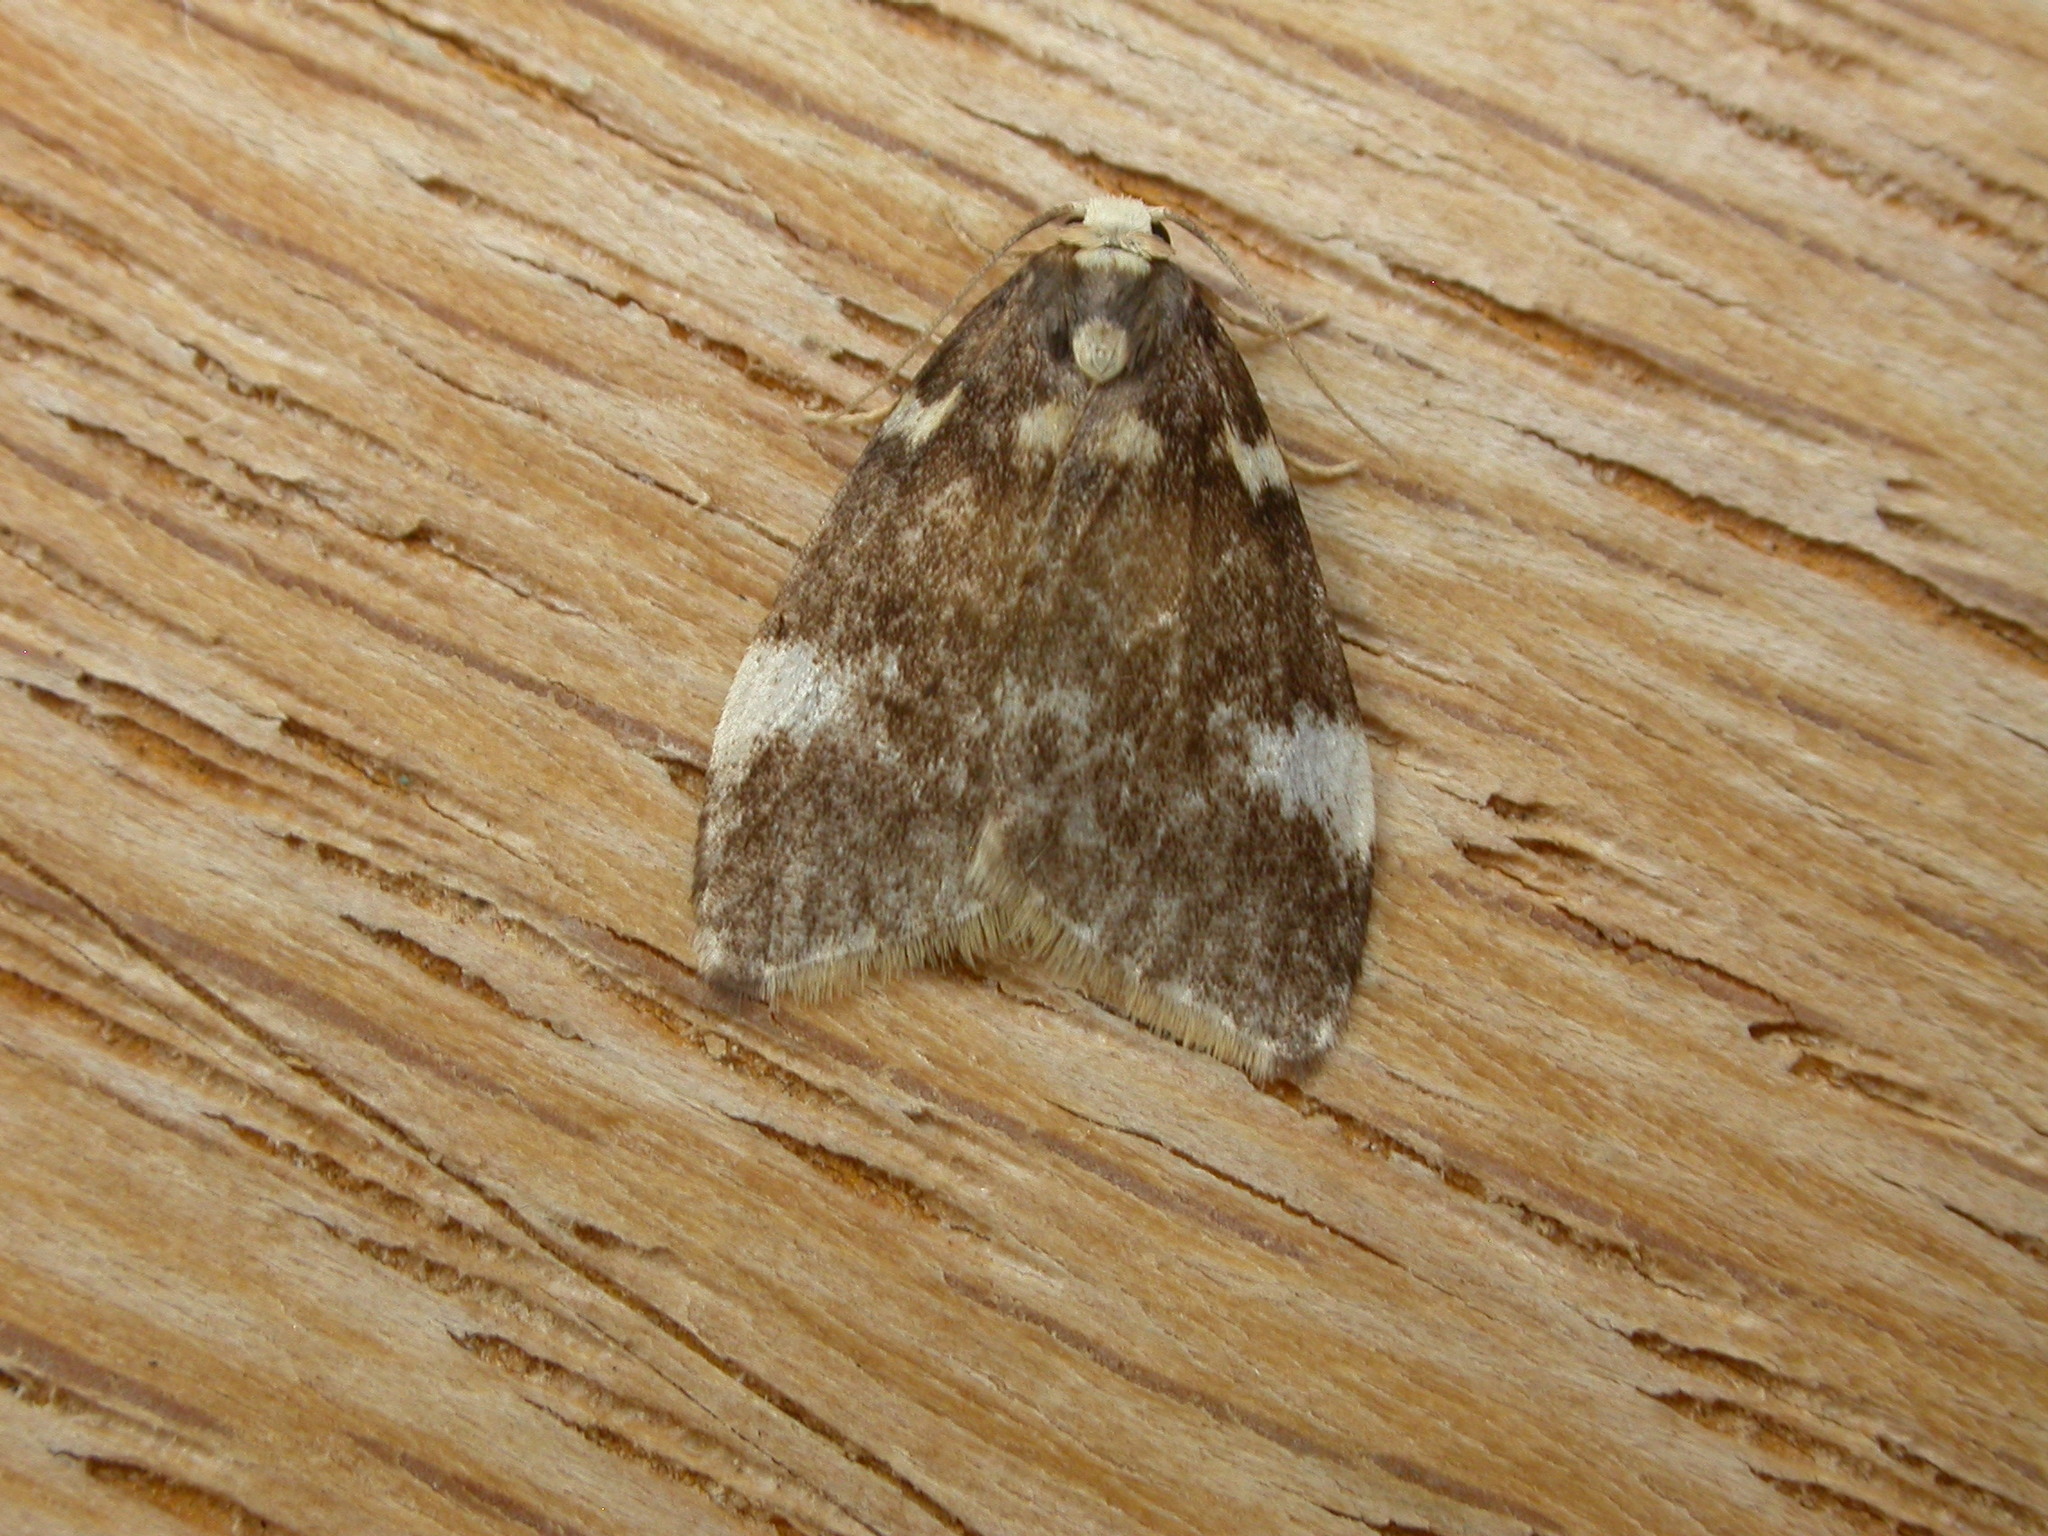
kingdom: Animalia
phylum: Arthropoda
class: Insecta
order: Lepidoptera
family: Erebidae
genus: Halone
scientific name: Halone pteridaula
